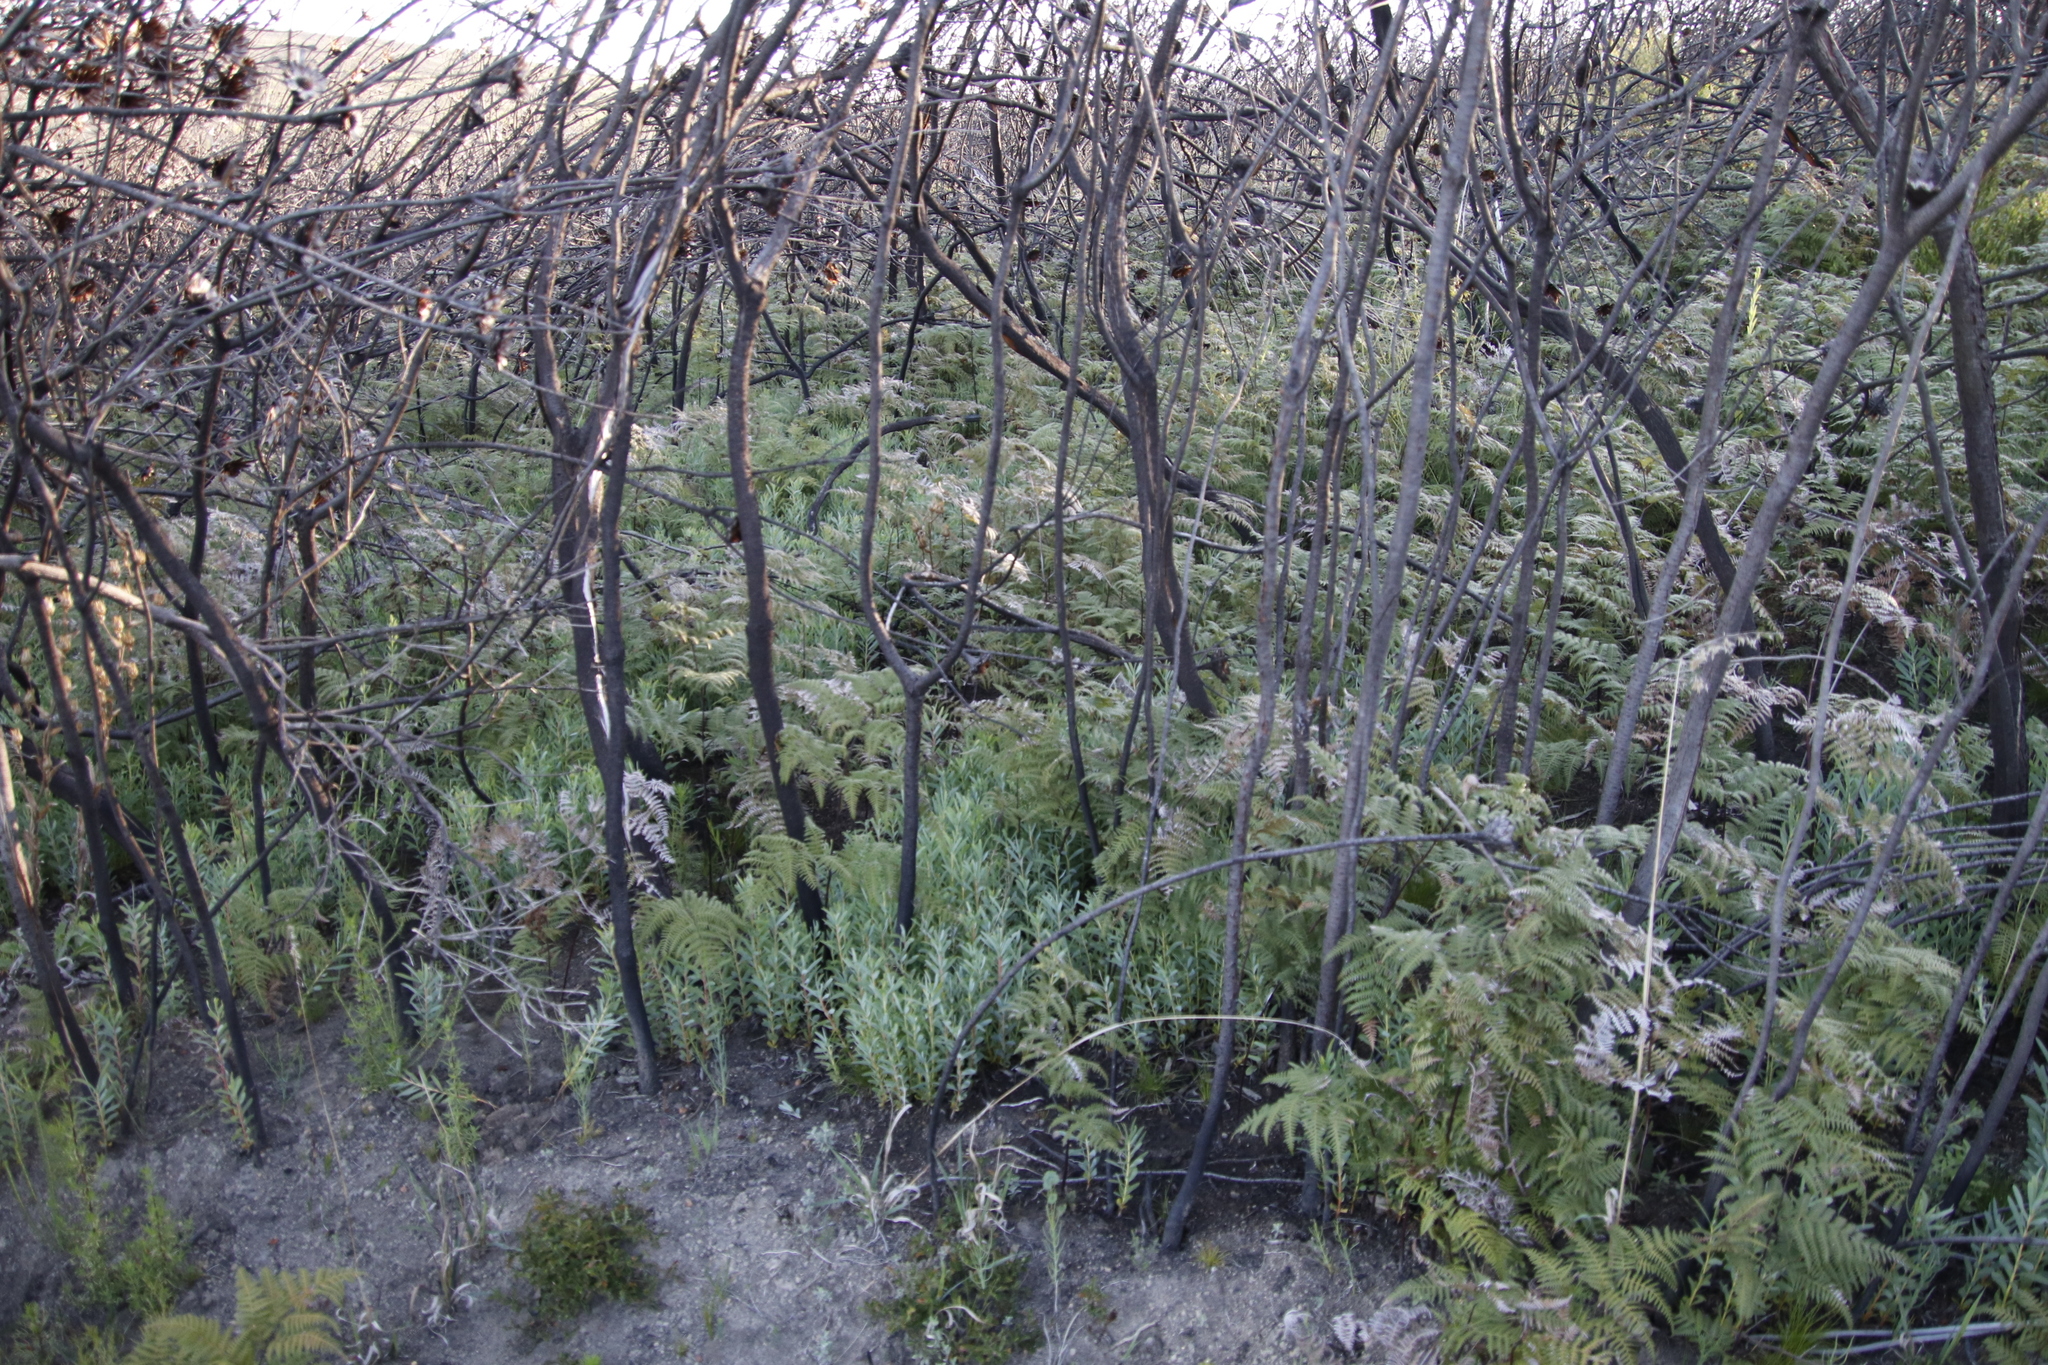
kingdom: Plantae
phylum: Tracheophyta
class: Magnoliopsida
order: Proteales
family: Proteaceae
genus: Protea
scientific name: Protea repens
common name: Sugarbush
